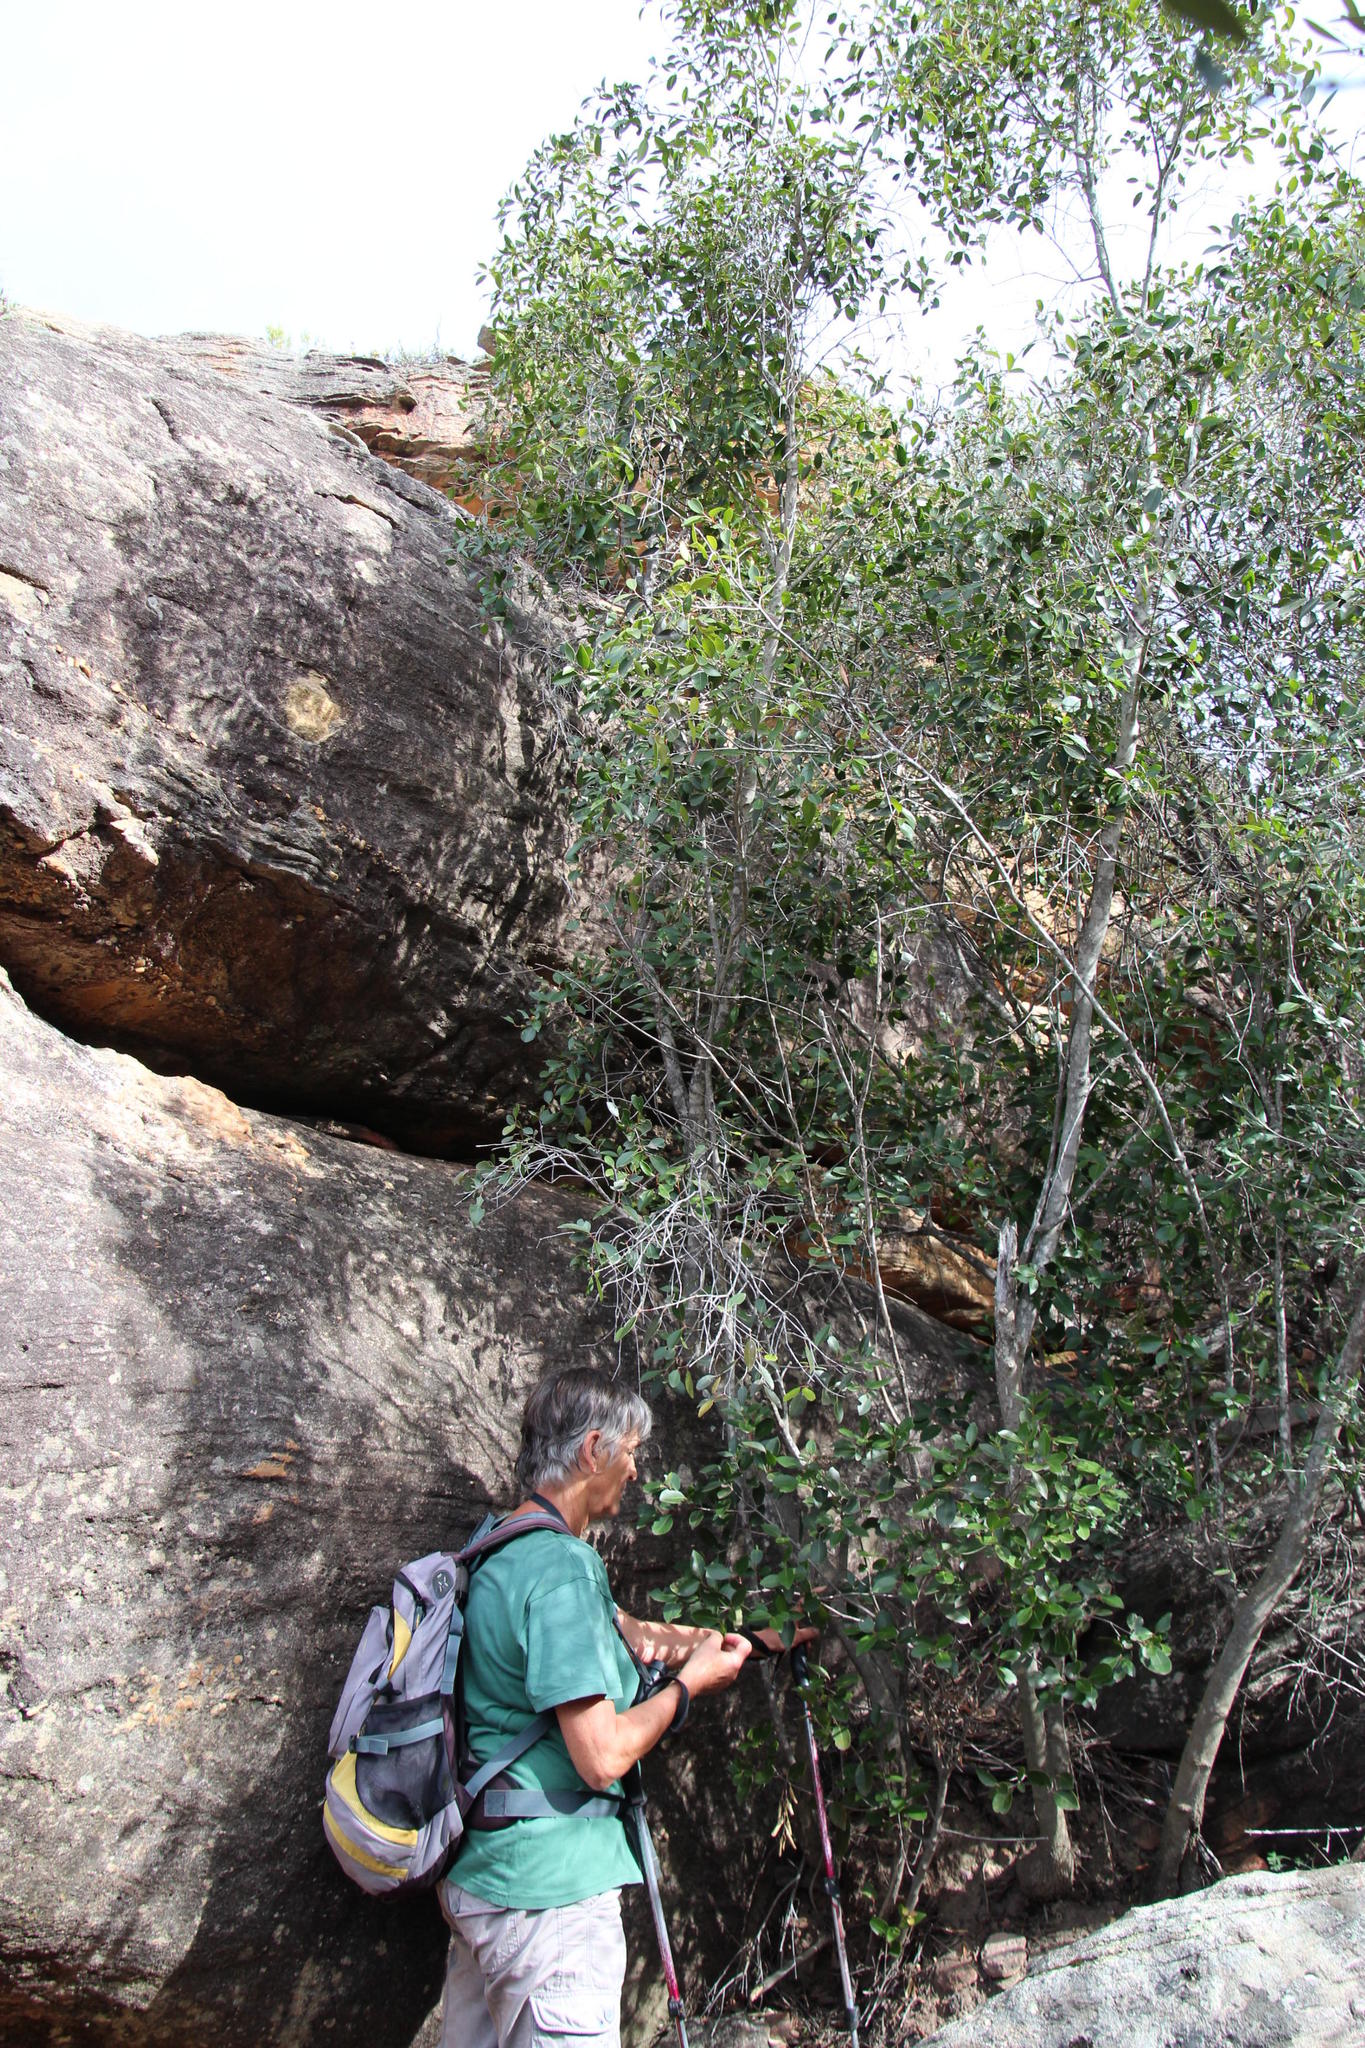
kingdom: Plantae
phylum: Tracheophyta
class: Magnoliopsida
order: Celastrales
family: Celastraceae
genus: Cassine
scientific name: Cassine peragua
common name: Cape saffron
